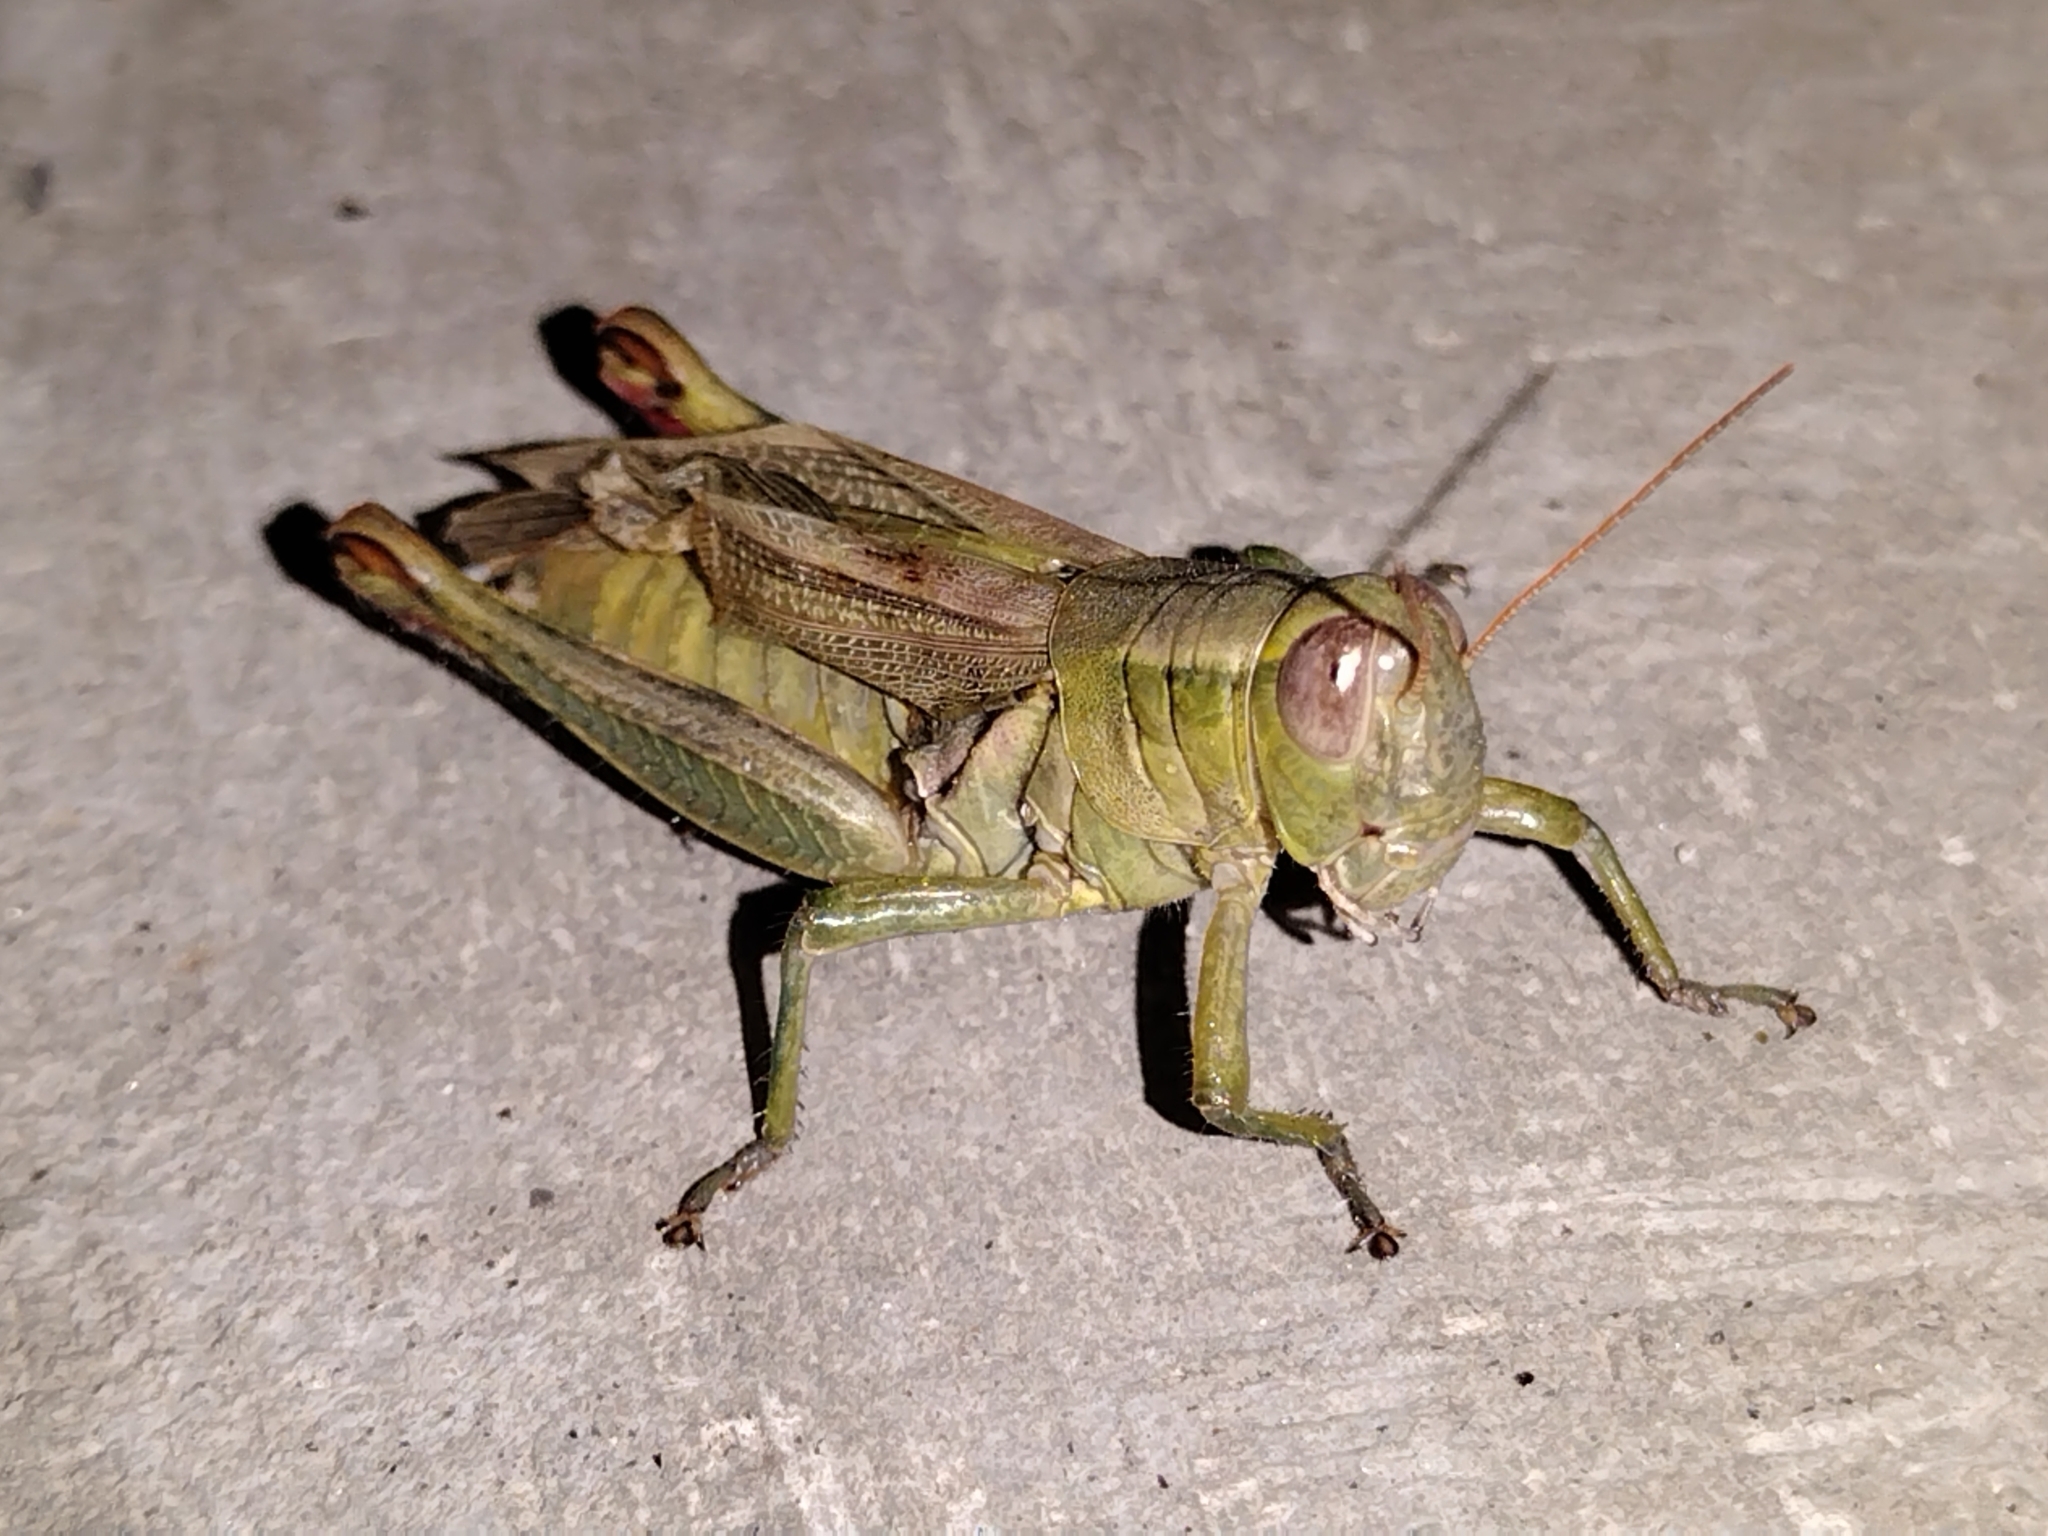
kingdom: Animalia
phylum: Arthropoda
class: Insecta
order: Orthoptera
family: Acrididae
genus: Melanoplus
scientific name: Melanoplus yarrowii
